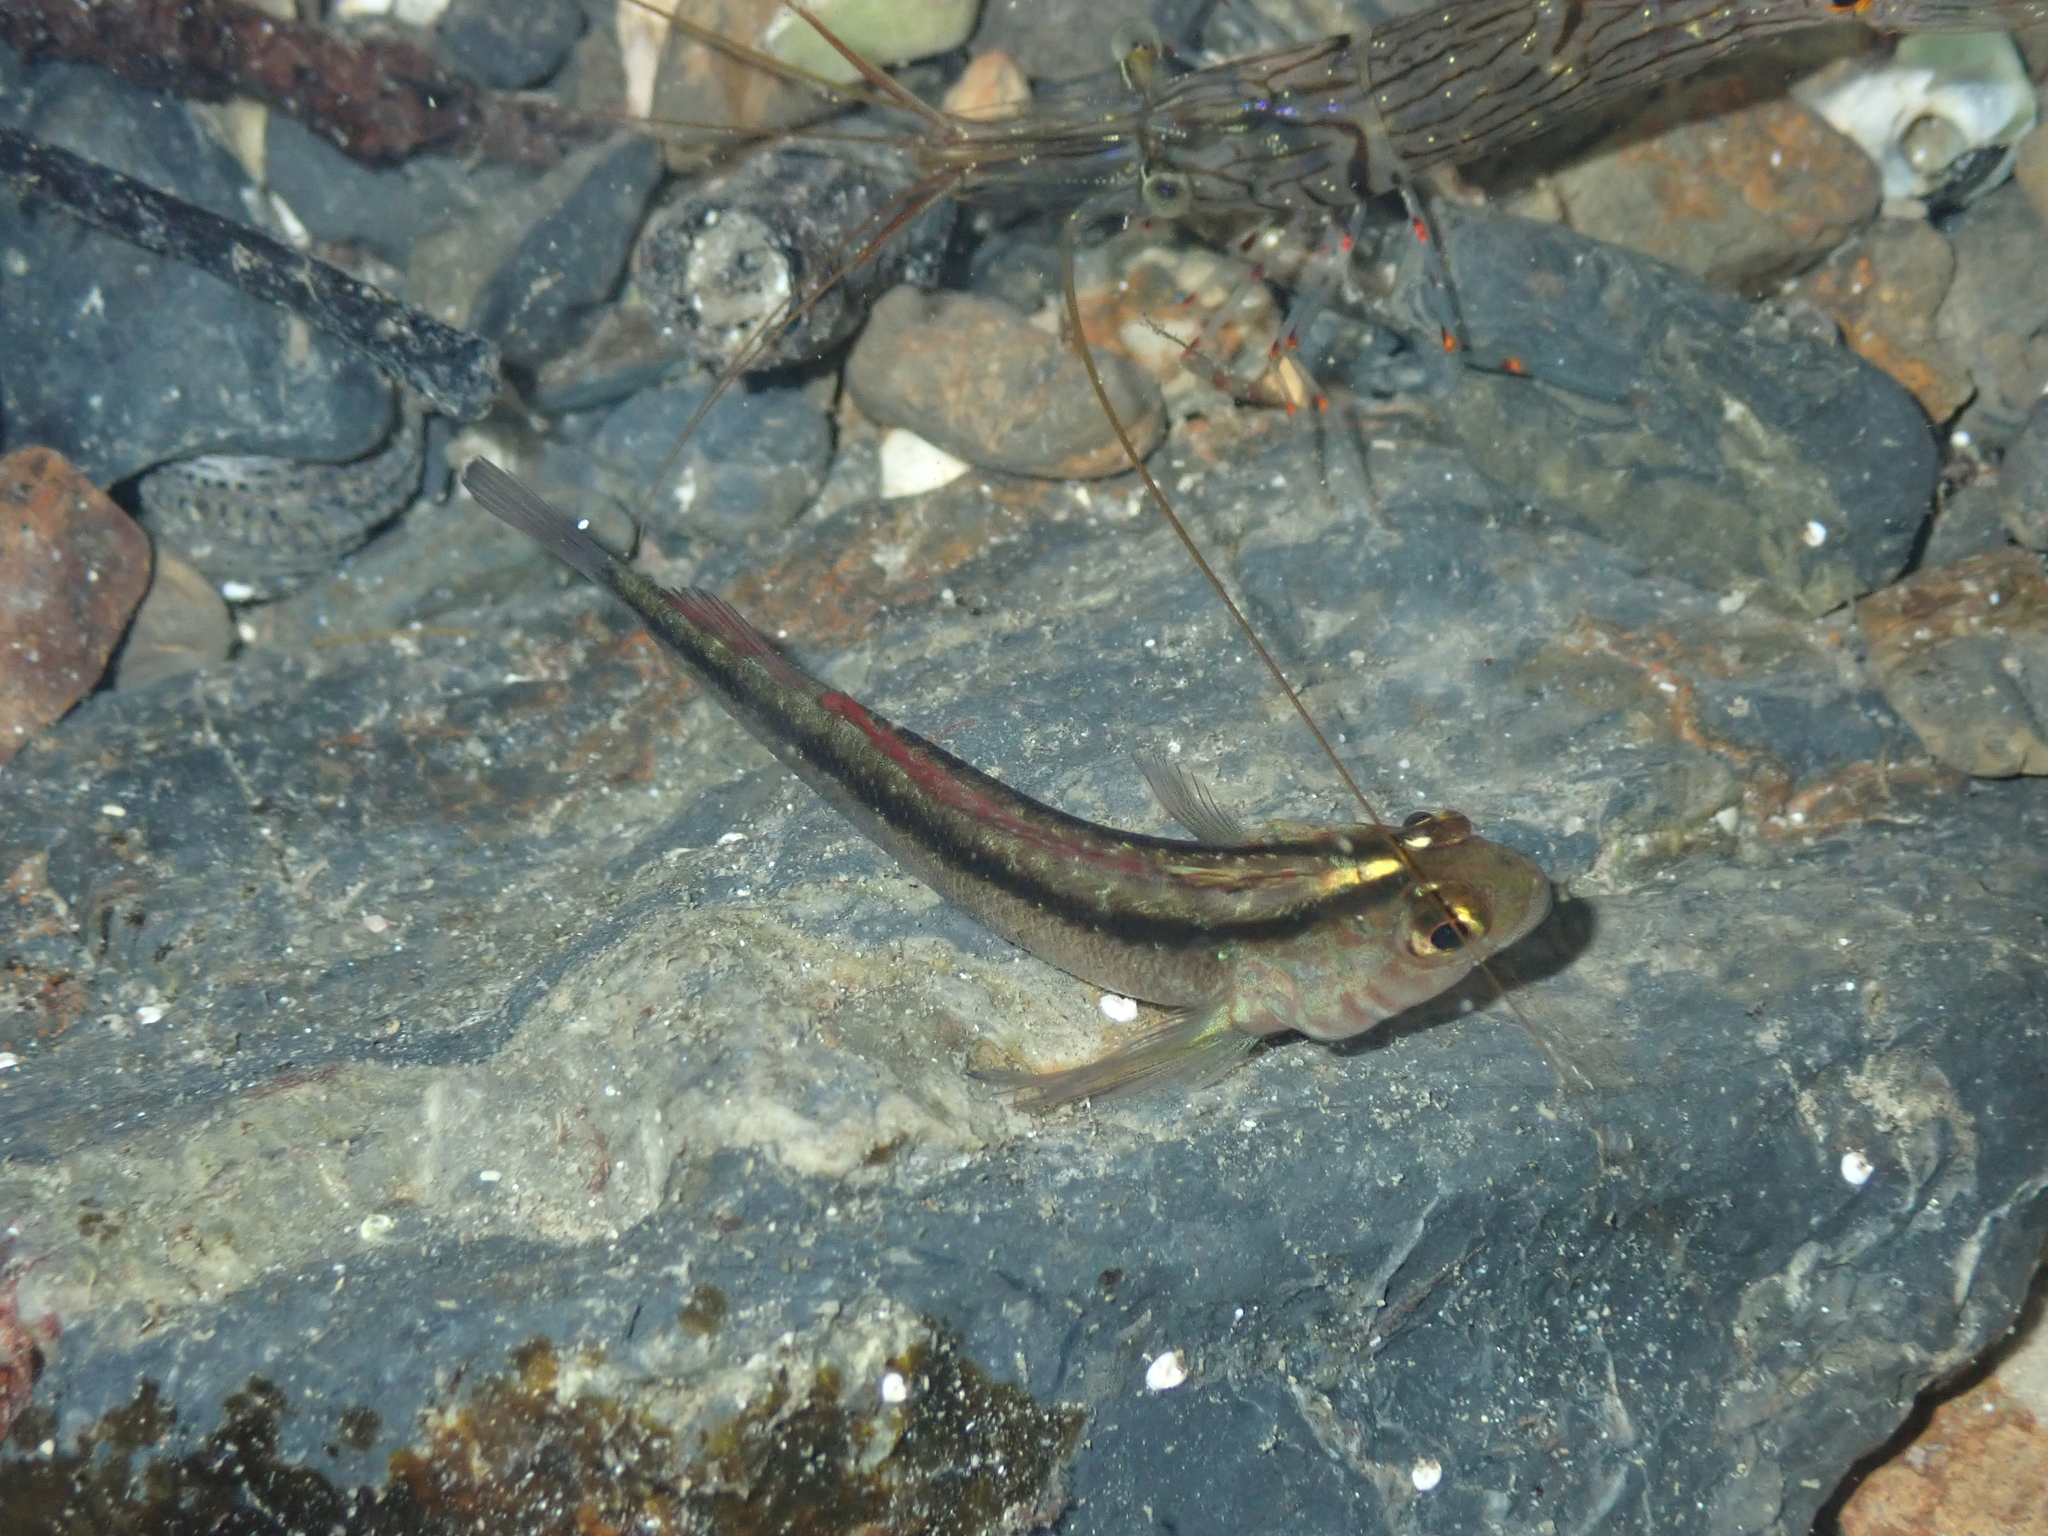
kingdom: Animalia
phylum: Chordata
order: Perciformes
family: Tripterygiidae
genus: Forsterygion
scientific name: Forsterygion lapillum
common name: Common triplefin
